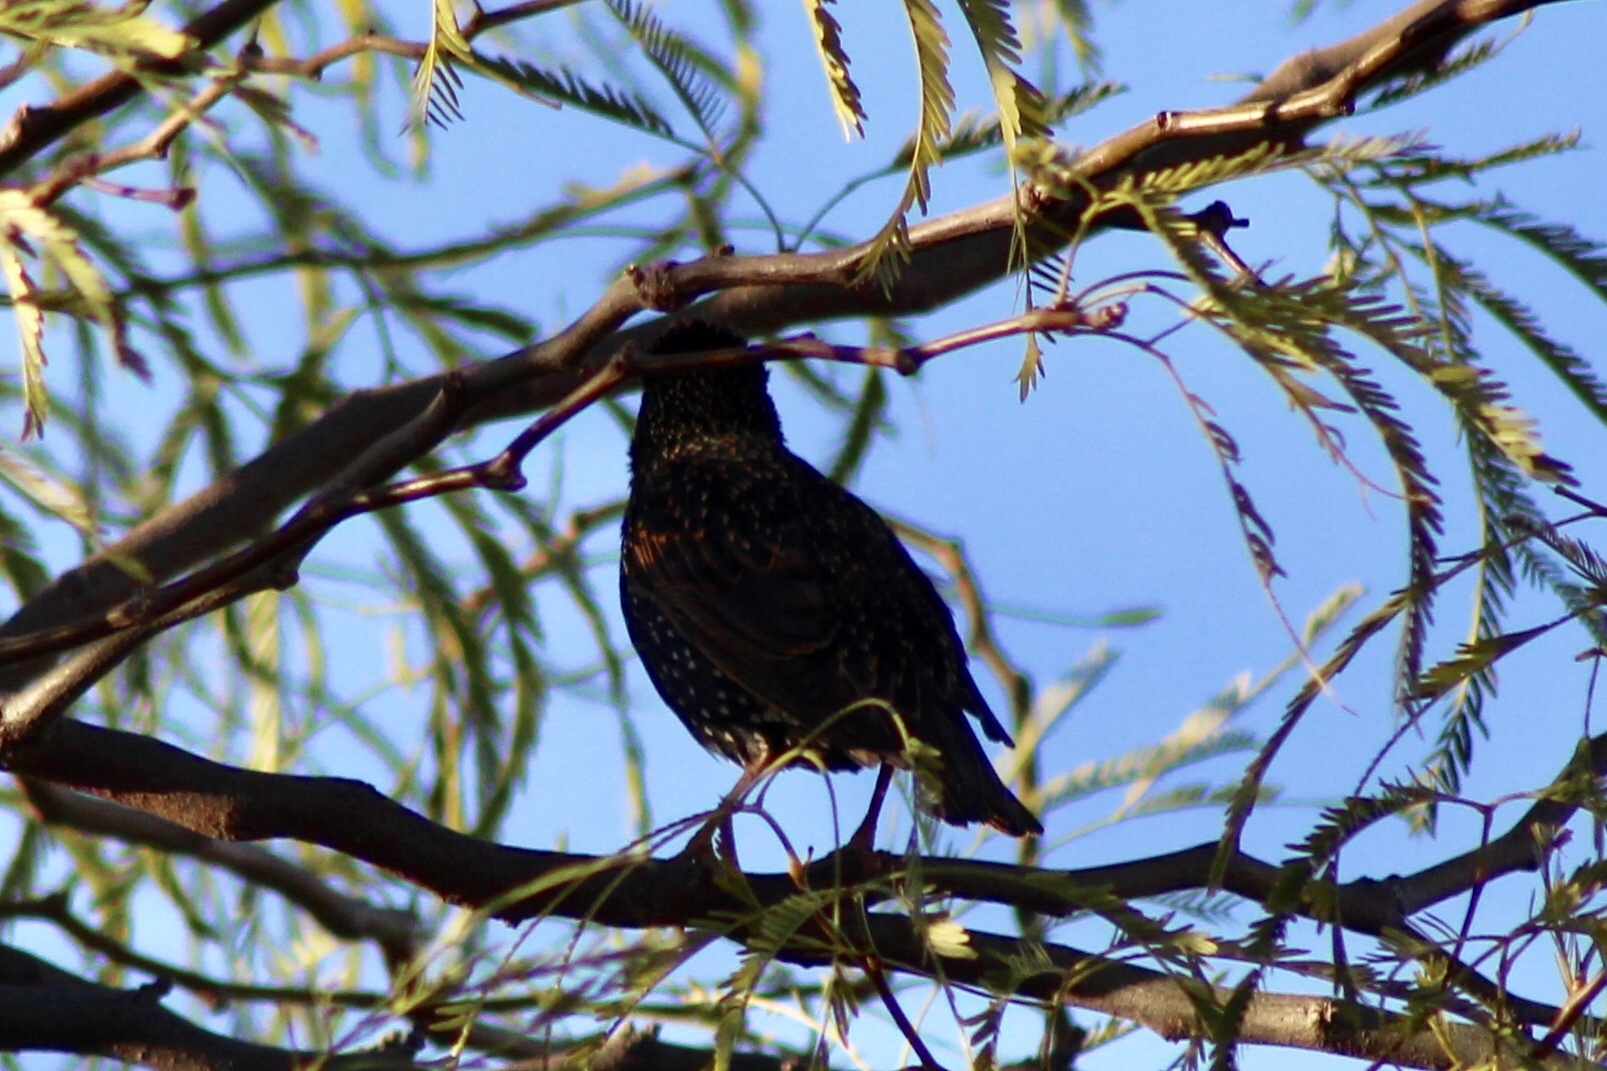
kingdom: Animalia
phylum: Chordata
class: Aves
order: Passeriformes
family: Sturnidae
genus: Sturnus
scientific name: Sturnus vulgaris
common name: Common starling
